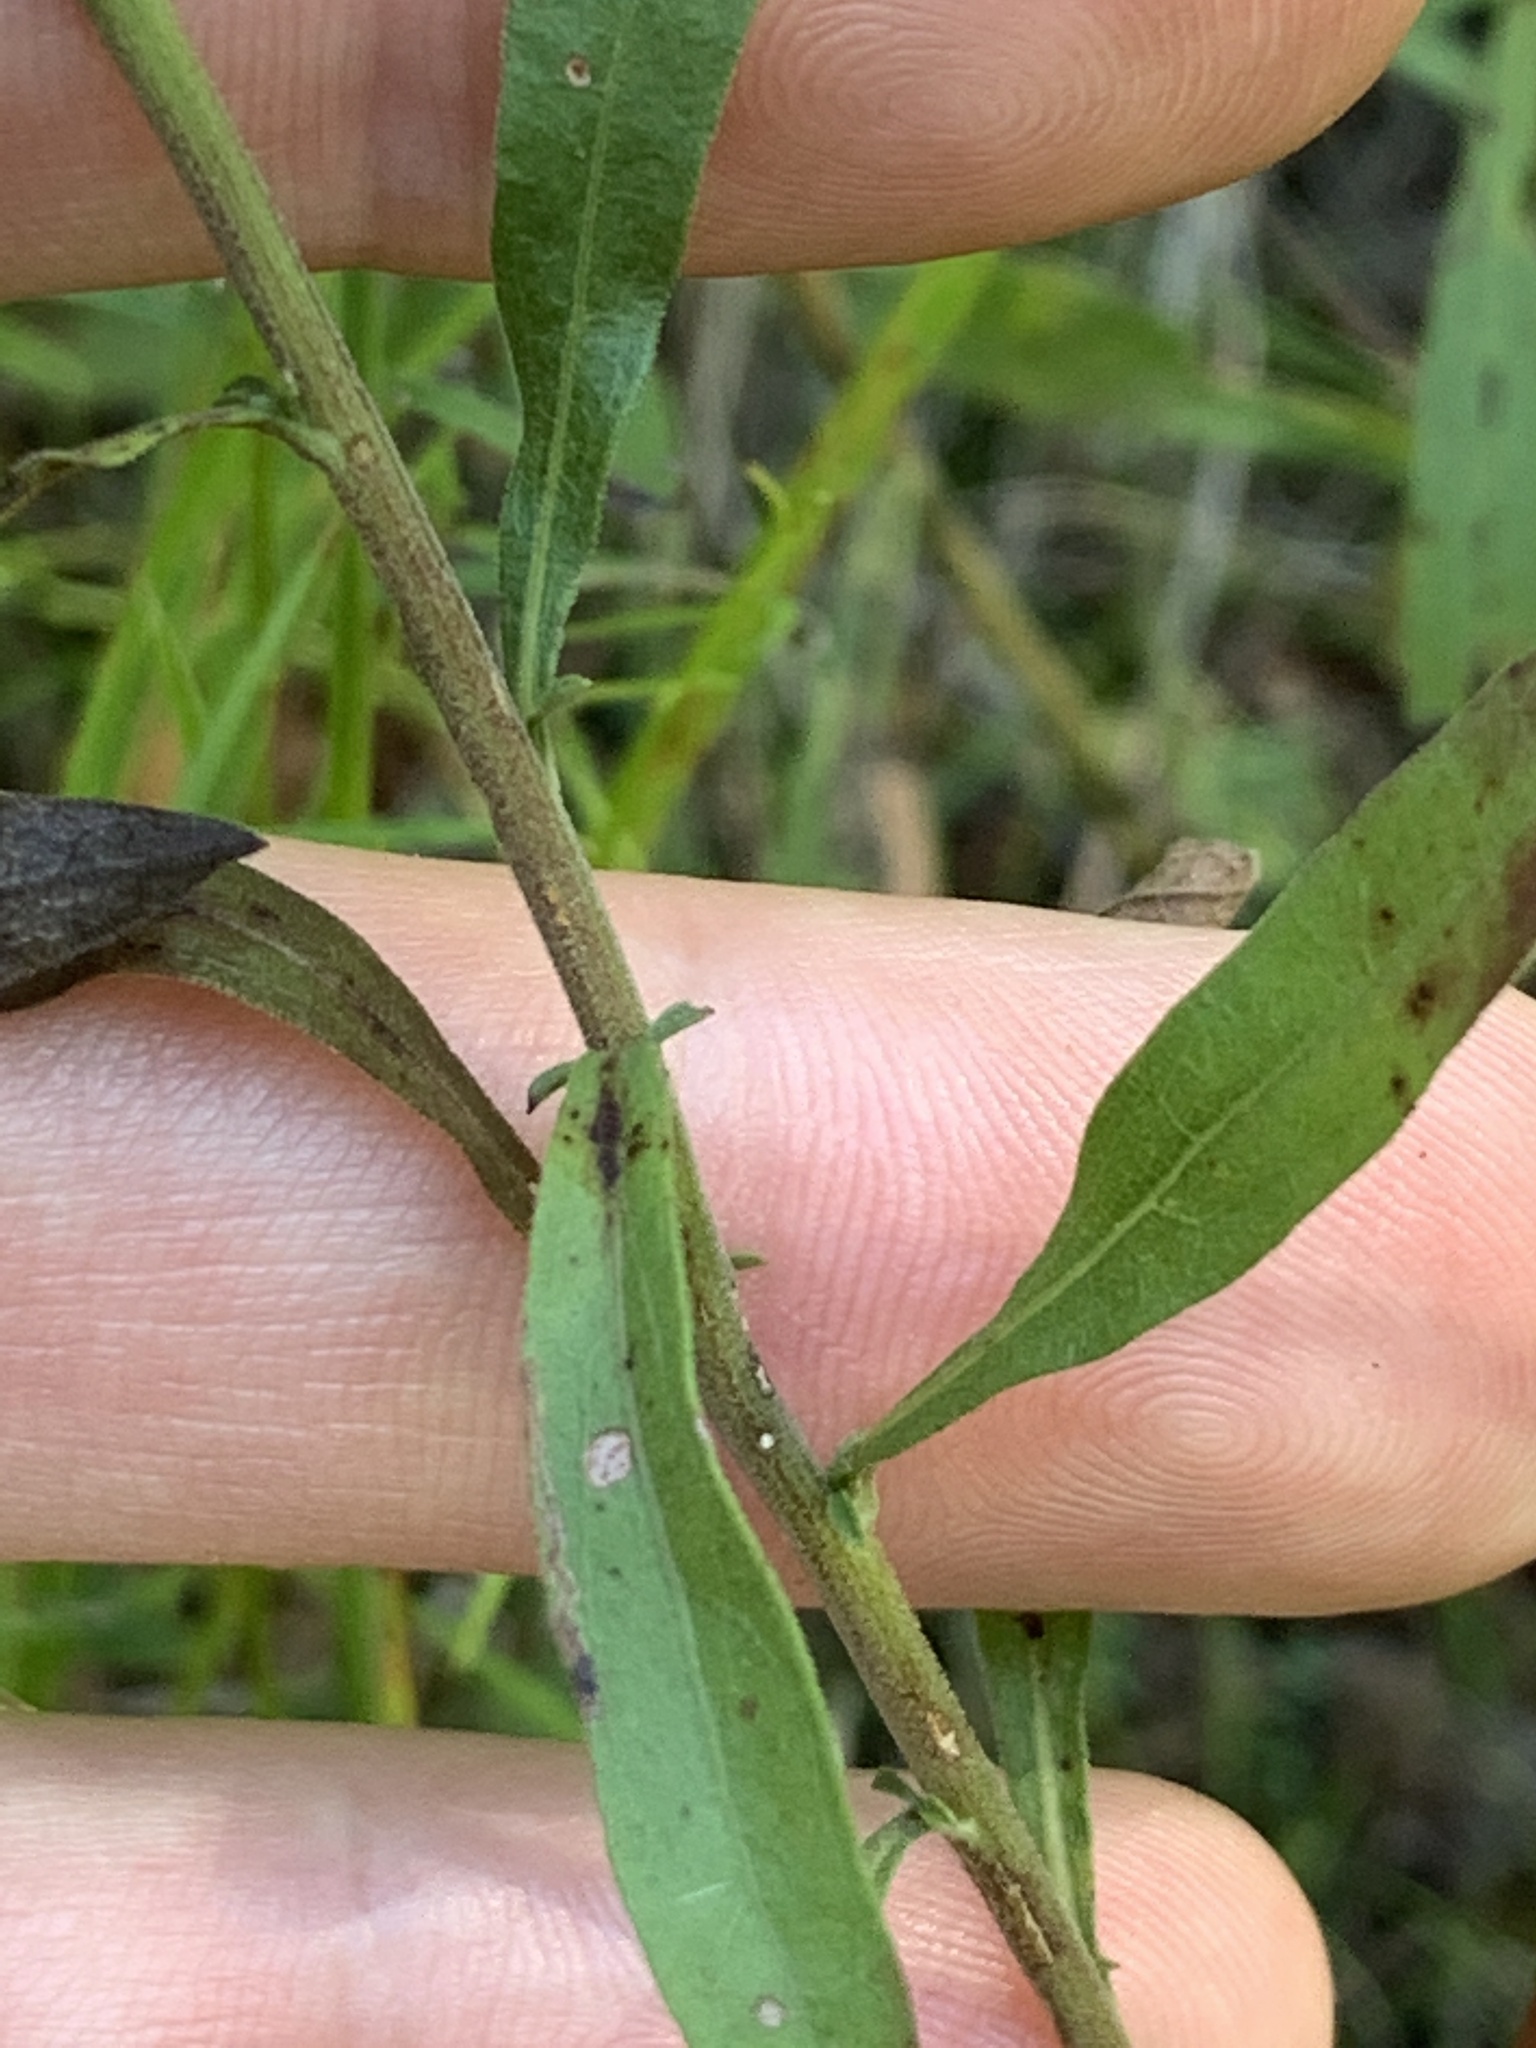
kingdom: Plantae
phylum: Tracheophyta
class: Magnoliopsida
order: Asterales
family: Asteraceae
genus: Solidago
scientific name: Solidago nemoralis
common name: Grey goldenrod
